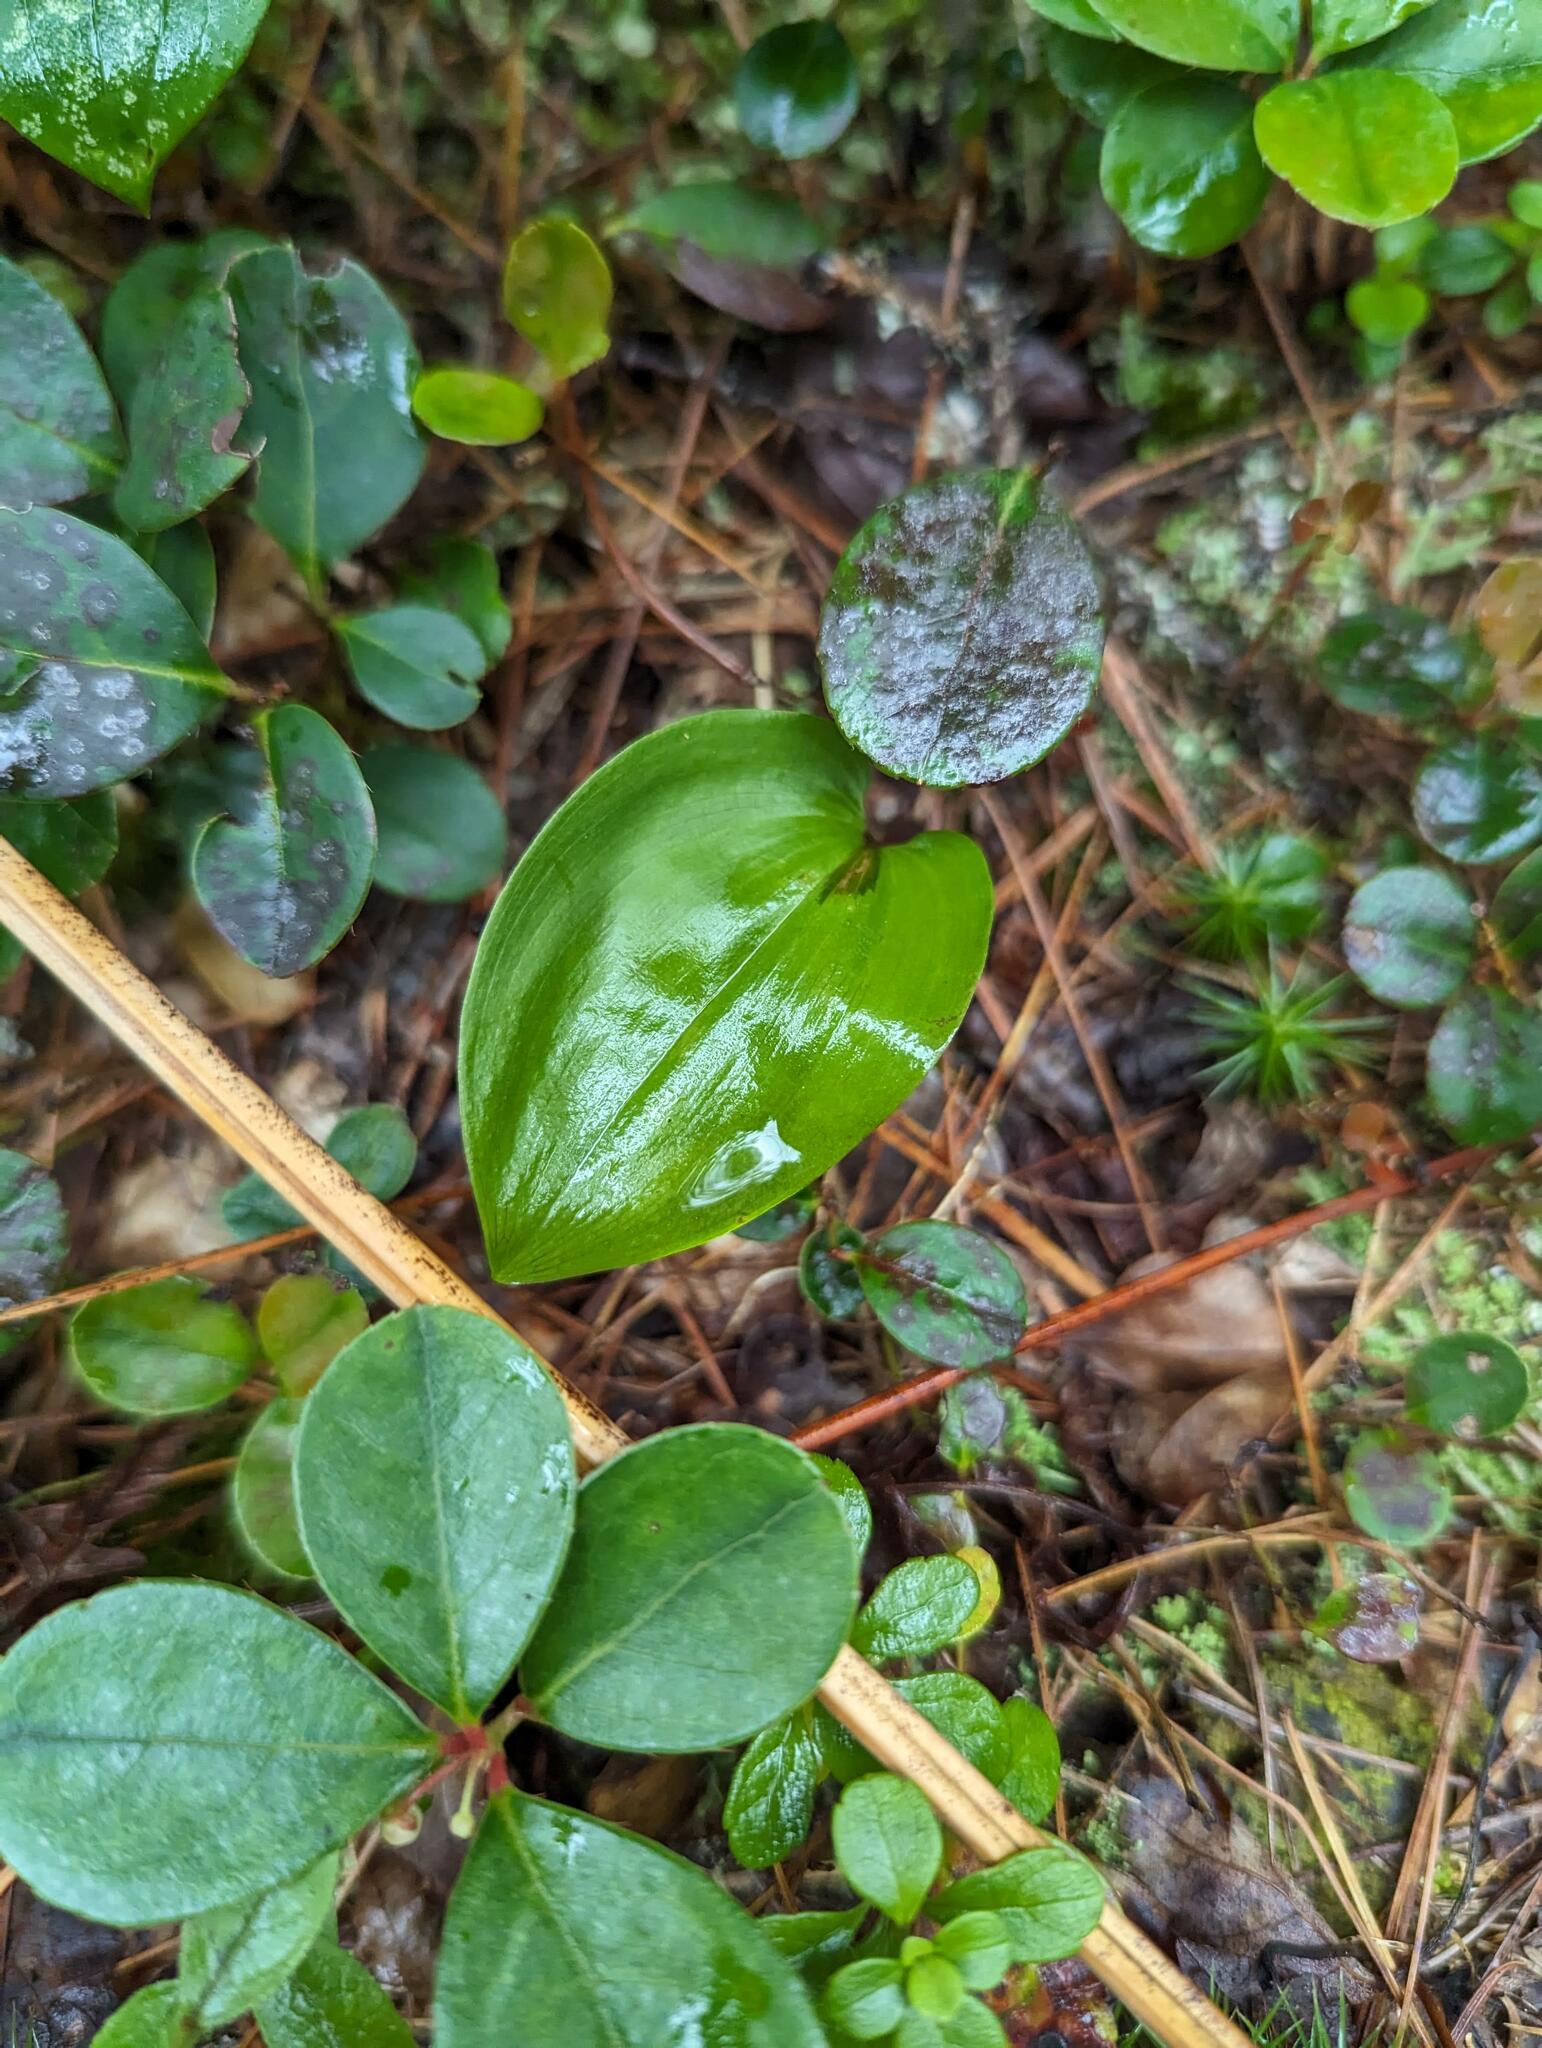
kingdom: Plantae
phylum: Tracheophyta
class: Liliopsida
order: Asparagales
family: Asparagaceae
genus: Maianthemum
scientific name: Maianthemum canadense
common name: False lily-of-the-valley
